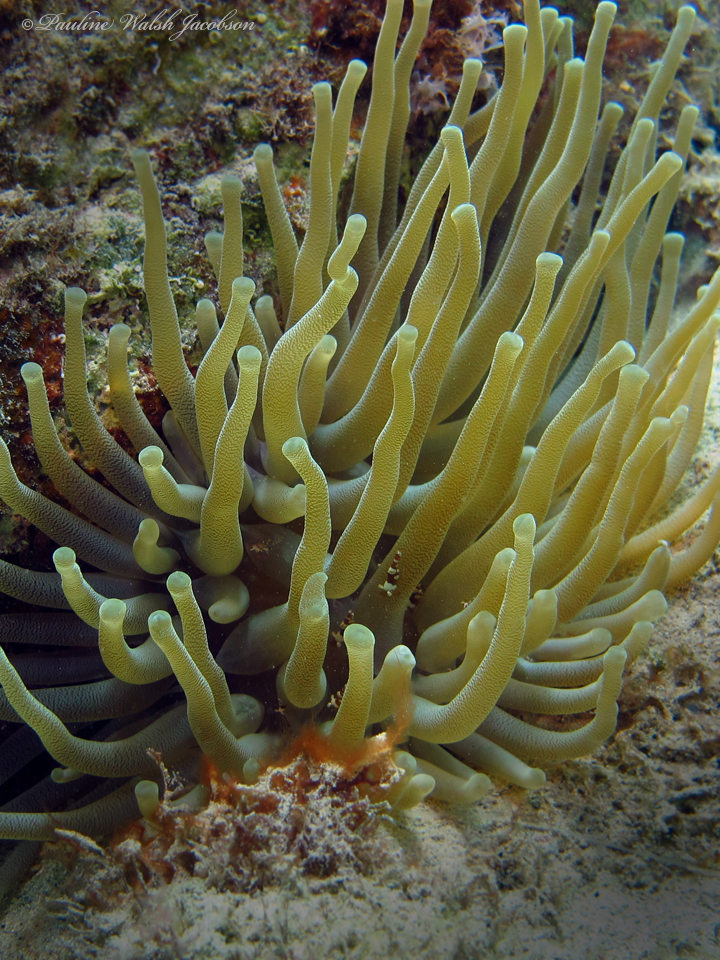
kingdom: Animalia
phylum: Cnidaria
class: Anthozoa
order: Actiniaria
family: Actiniidae
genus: Condylactis
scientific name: Condylactis gigantea
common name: Giant caribbean anemone
